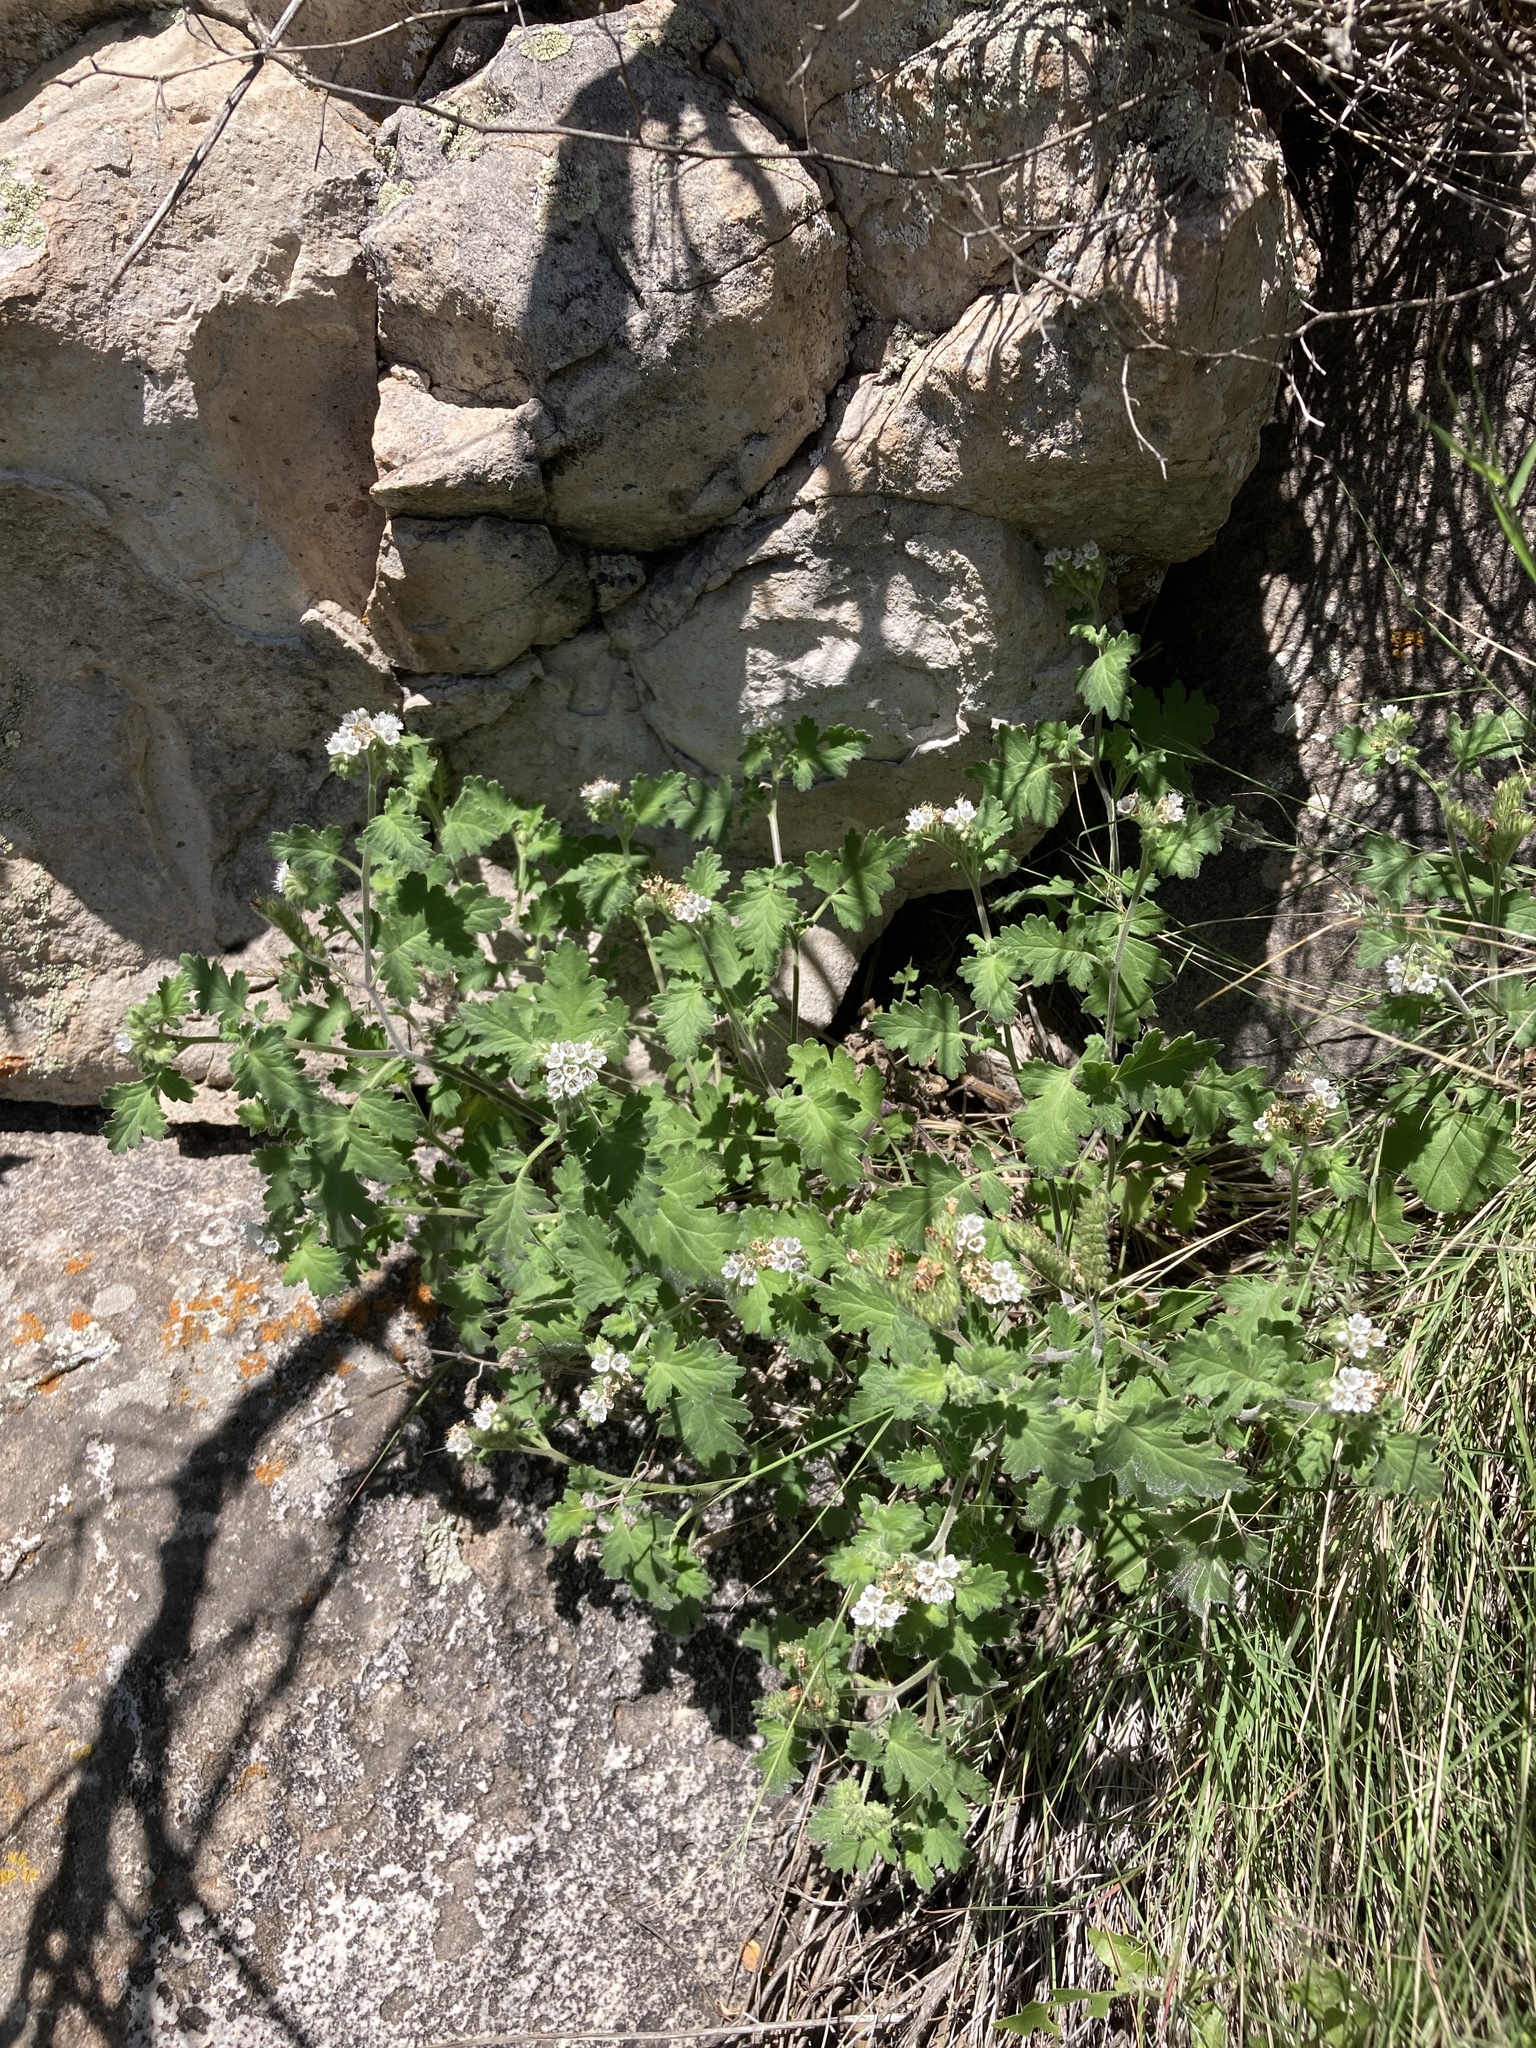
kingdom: Plantae
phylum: Tracheophyta
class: Magnoliopsida
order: Boraginales
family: Hydrophyllaceae
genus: Phacelia
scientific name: Phacelia rupestris
